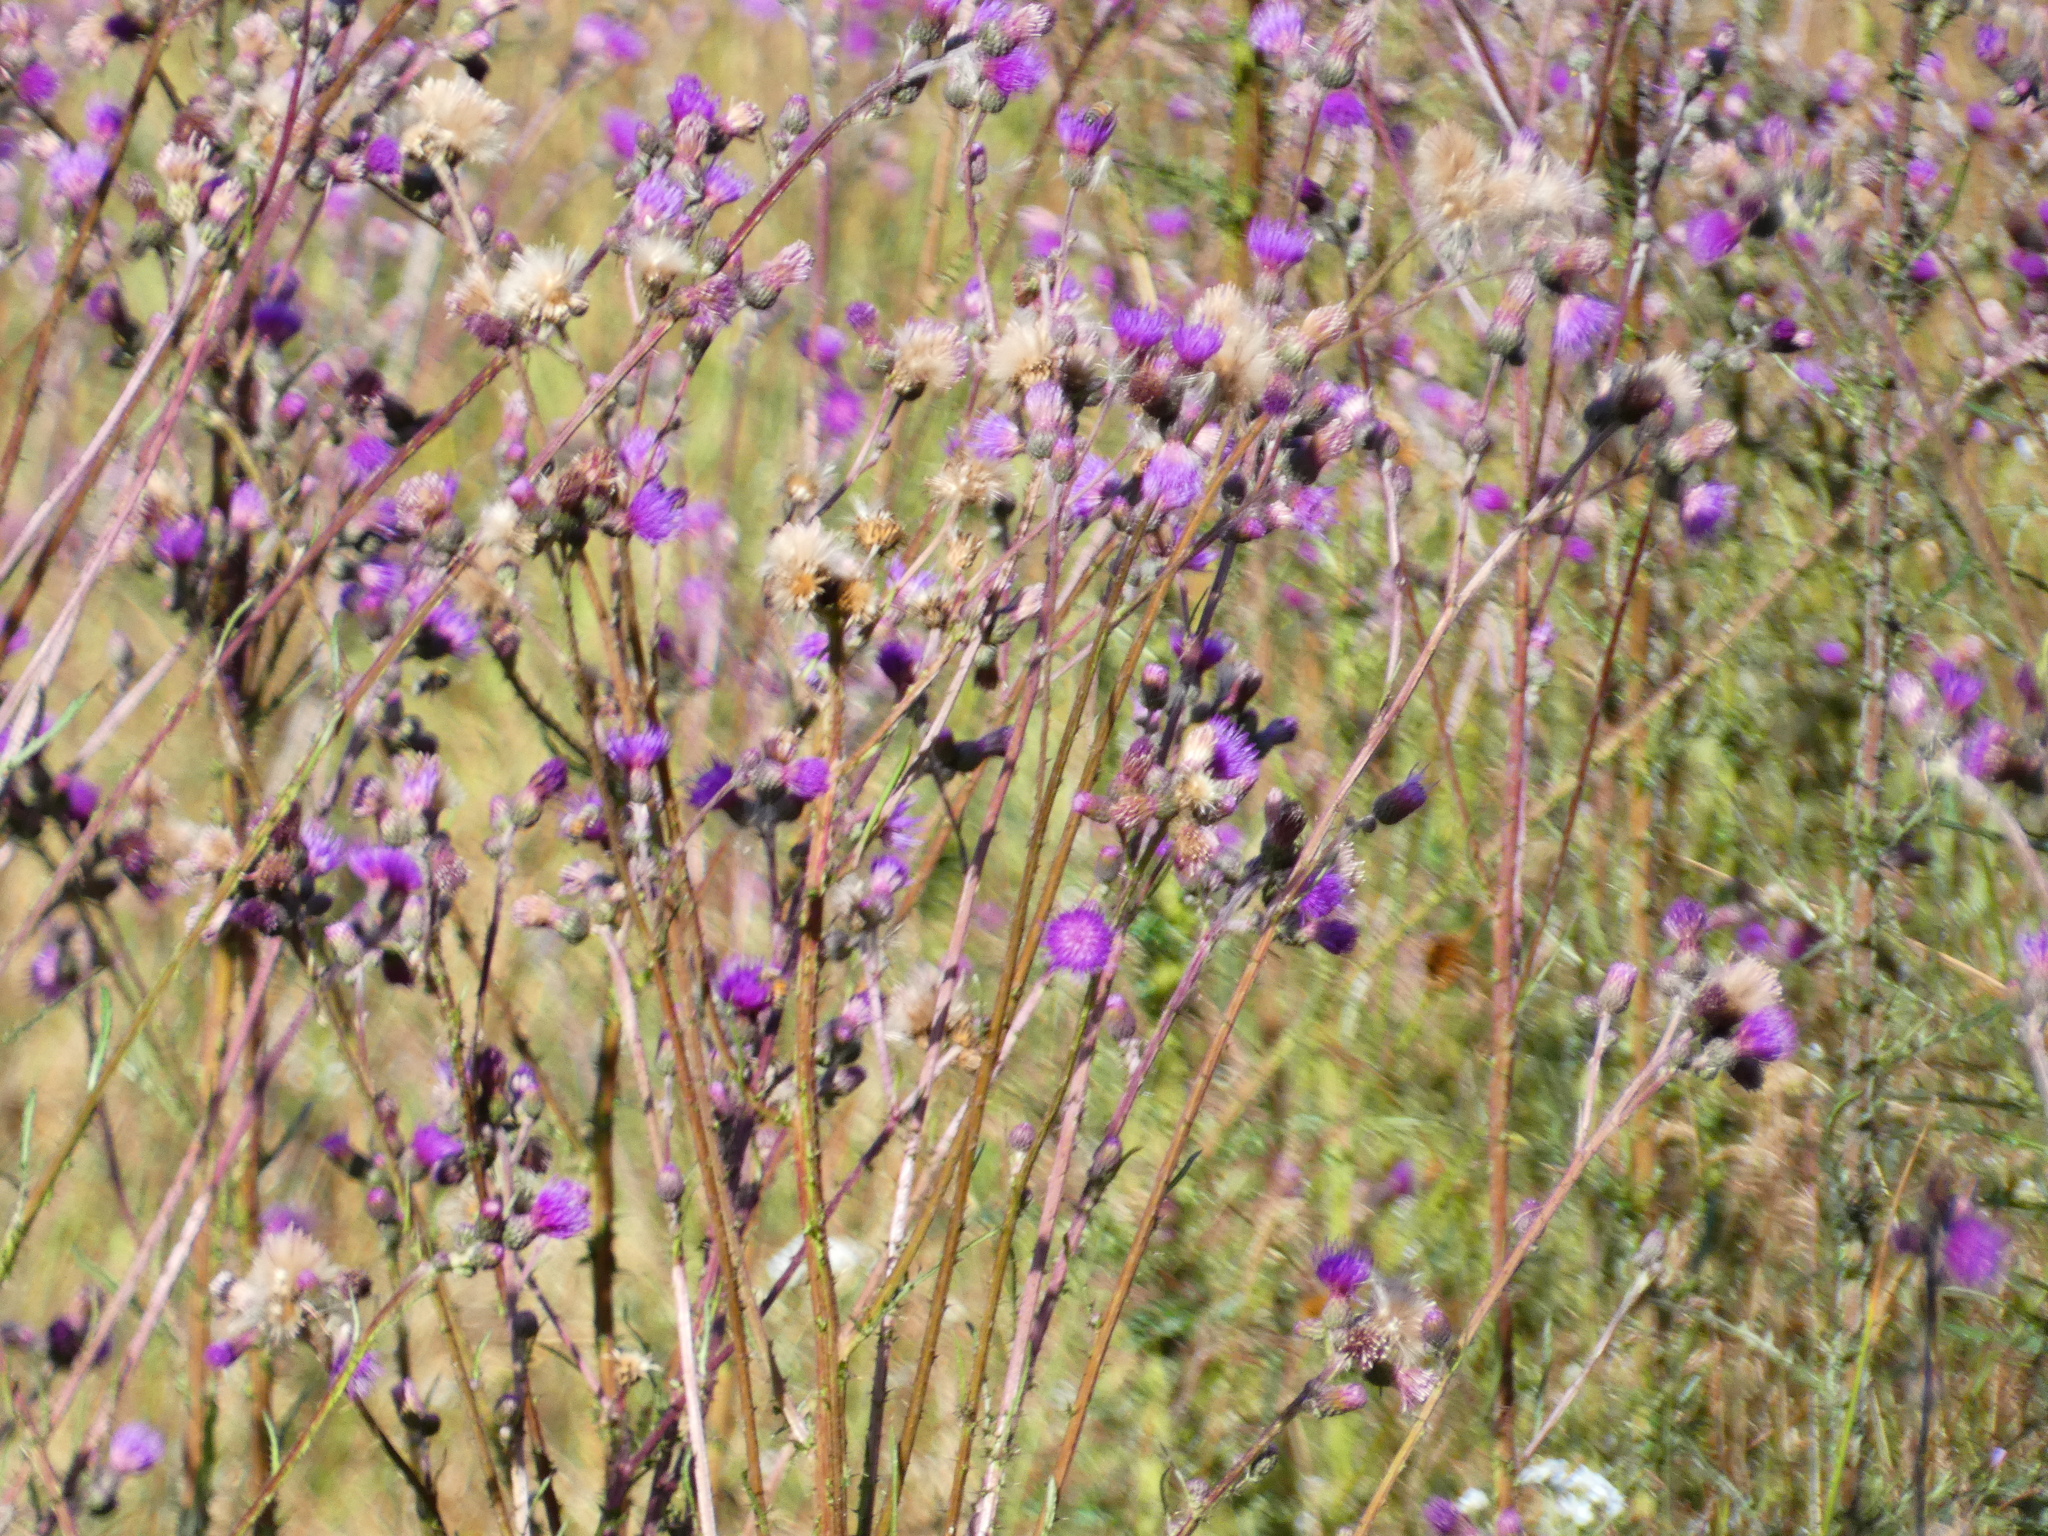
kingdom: Plantae
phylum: Tracheophyta
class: Magnoliopsida
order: Asterales
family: Asteraceae
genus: Cirsium
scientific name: Cirsium palustre
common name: Marsh thistle
